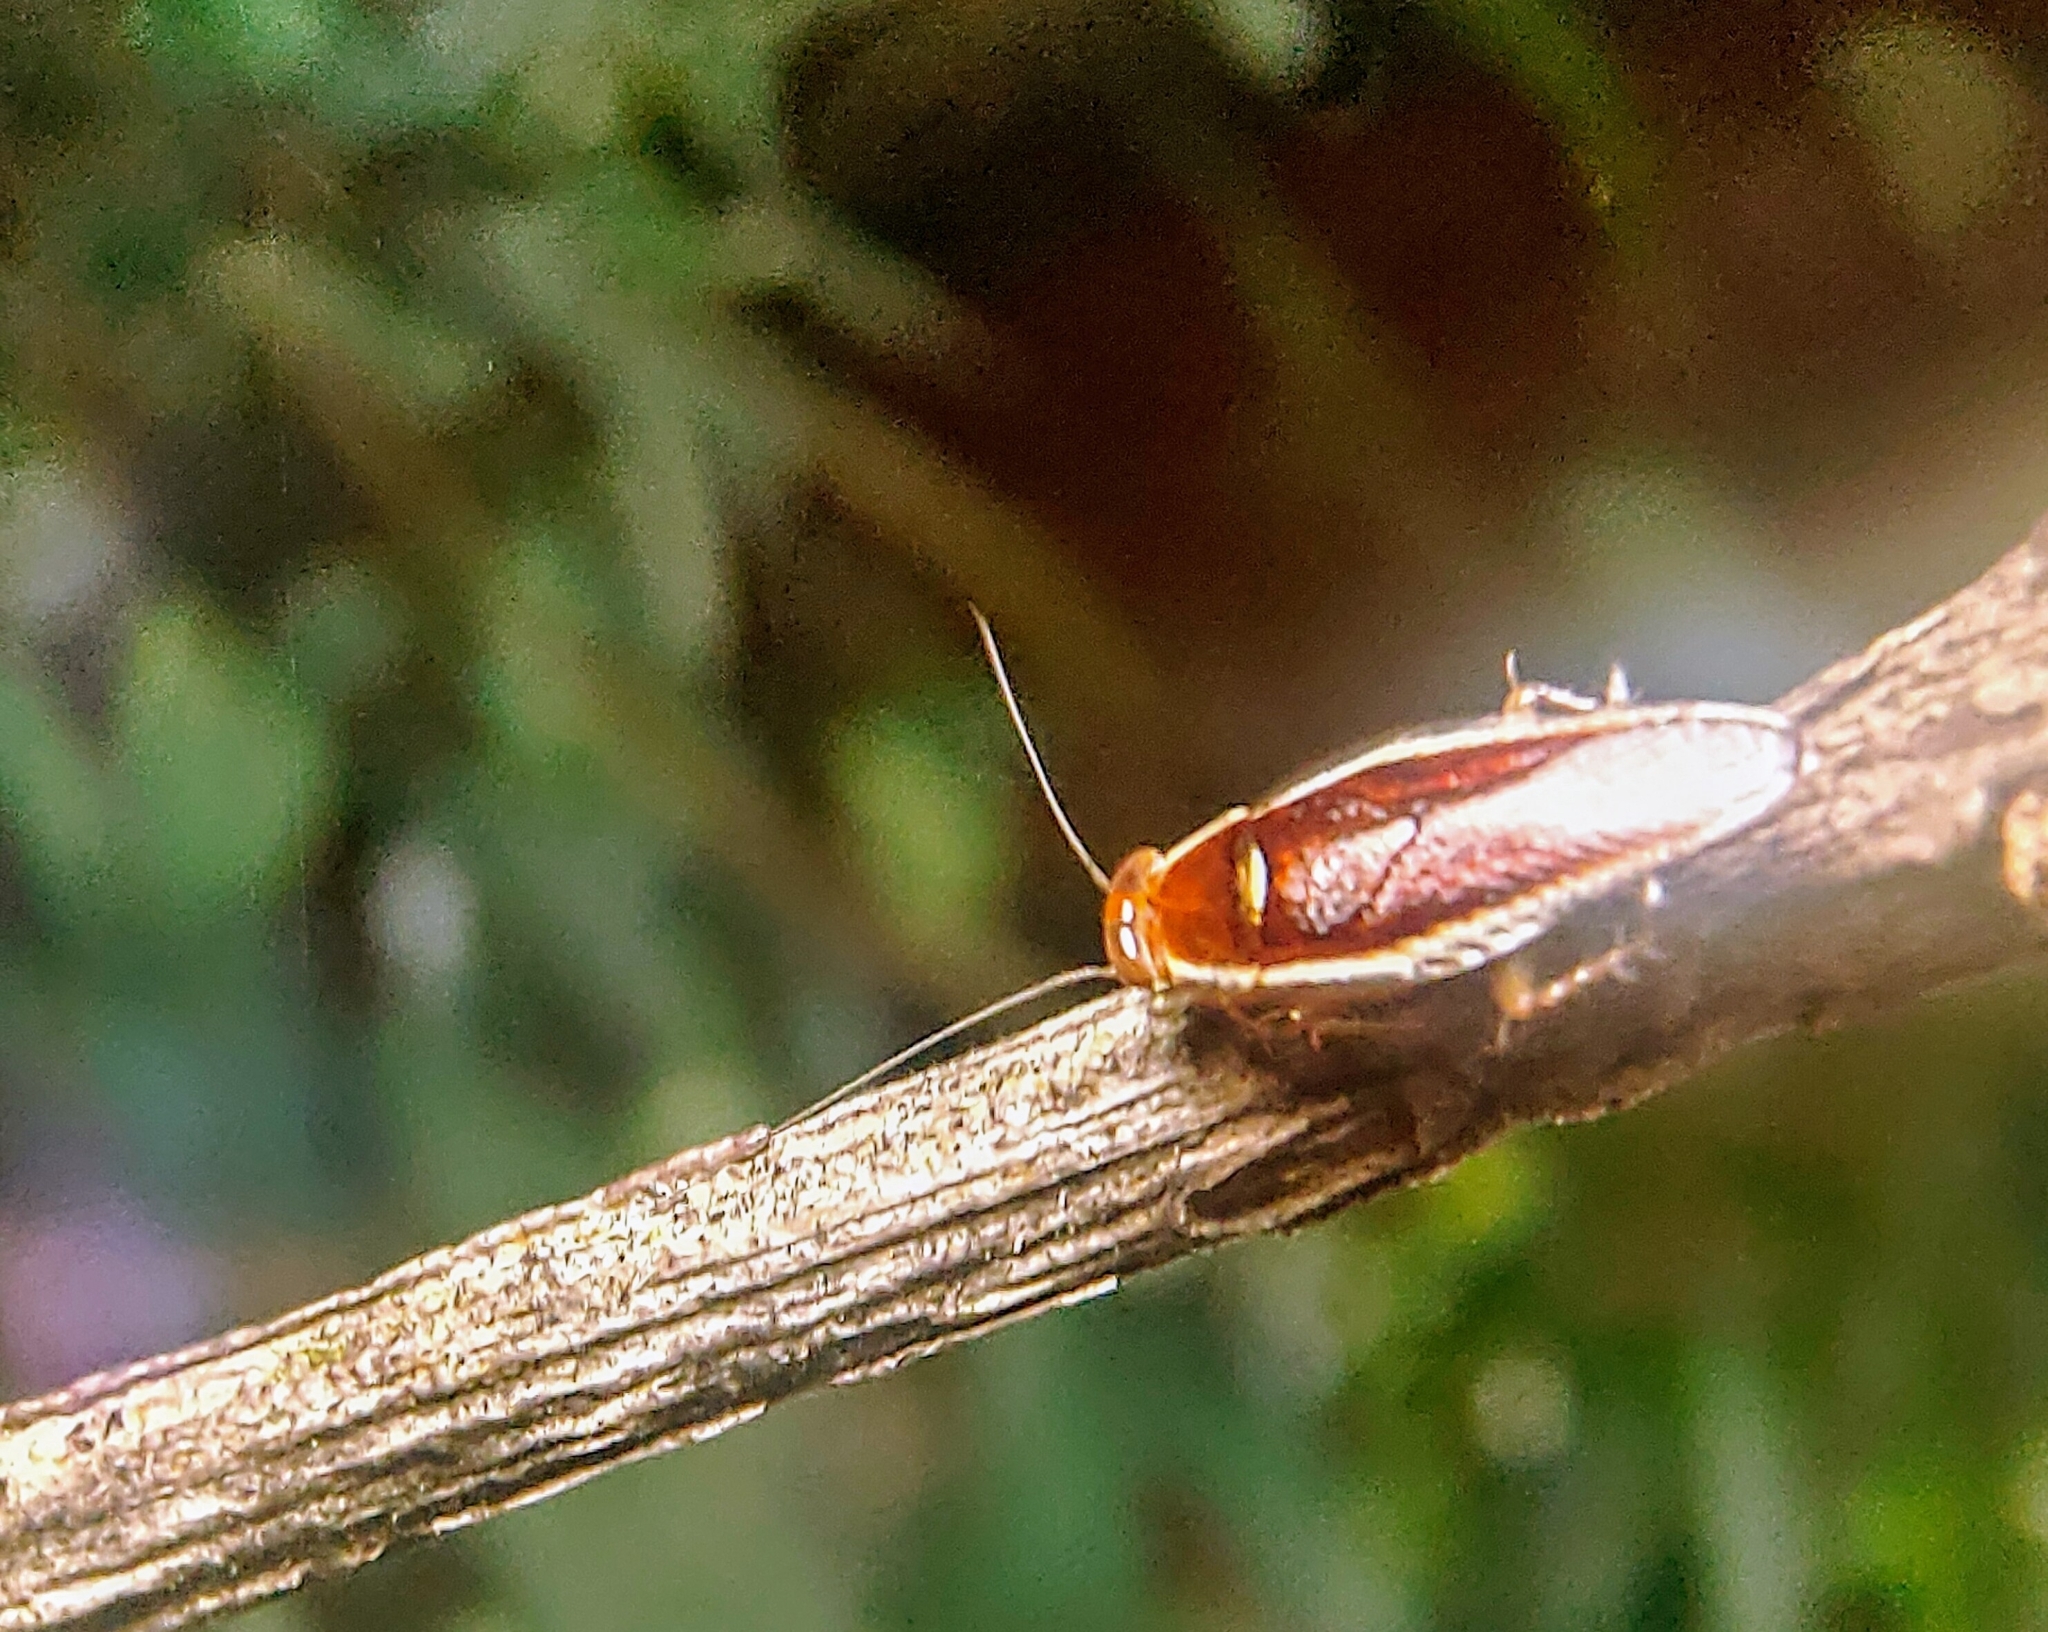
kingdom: Animalia
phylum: Arthropoda
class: Insecta
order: Blattodea
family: Ectobiidae
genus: Pseudophyllodromia
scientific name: Pseudophyllodromia laticeps
